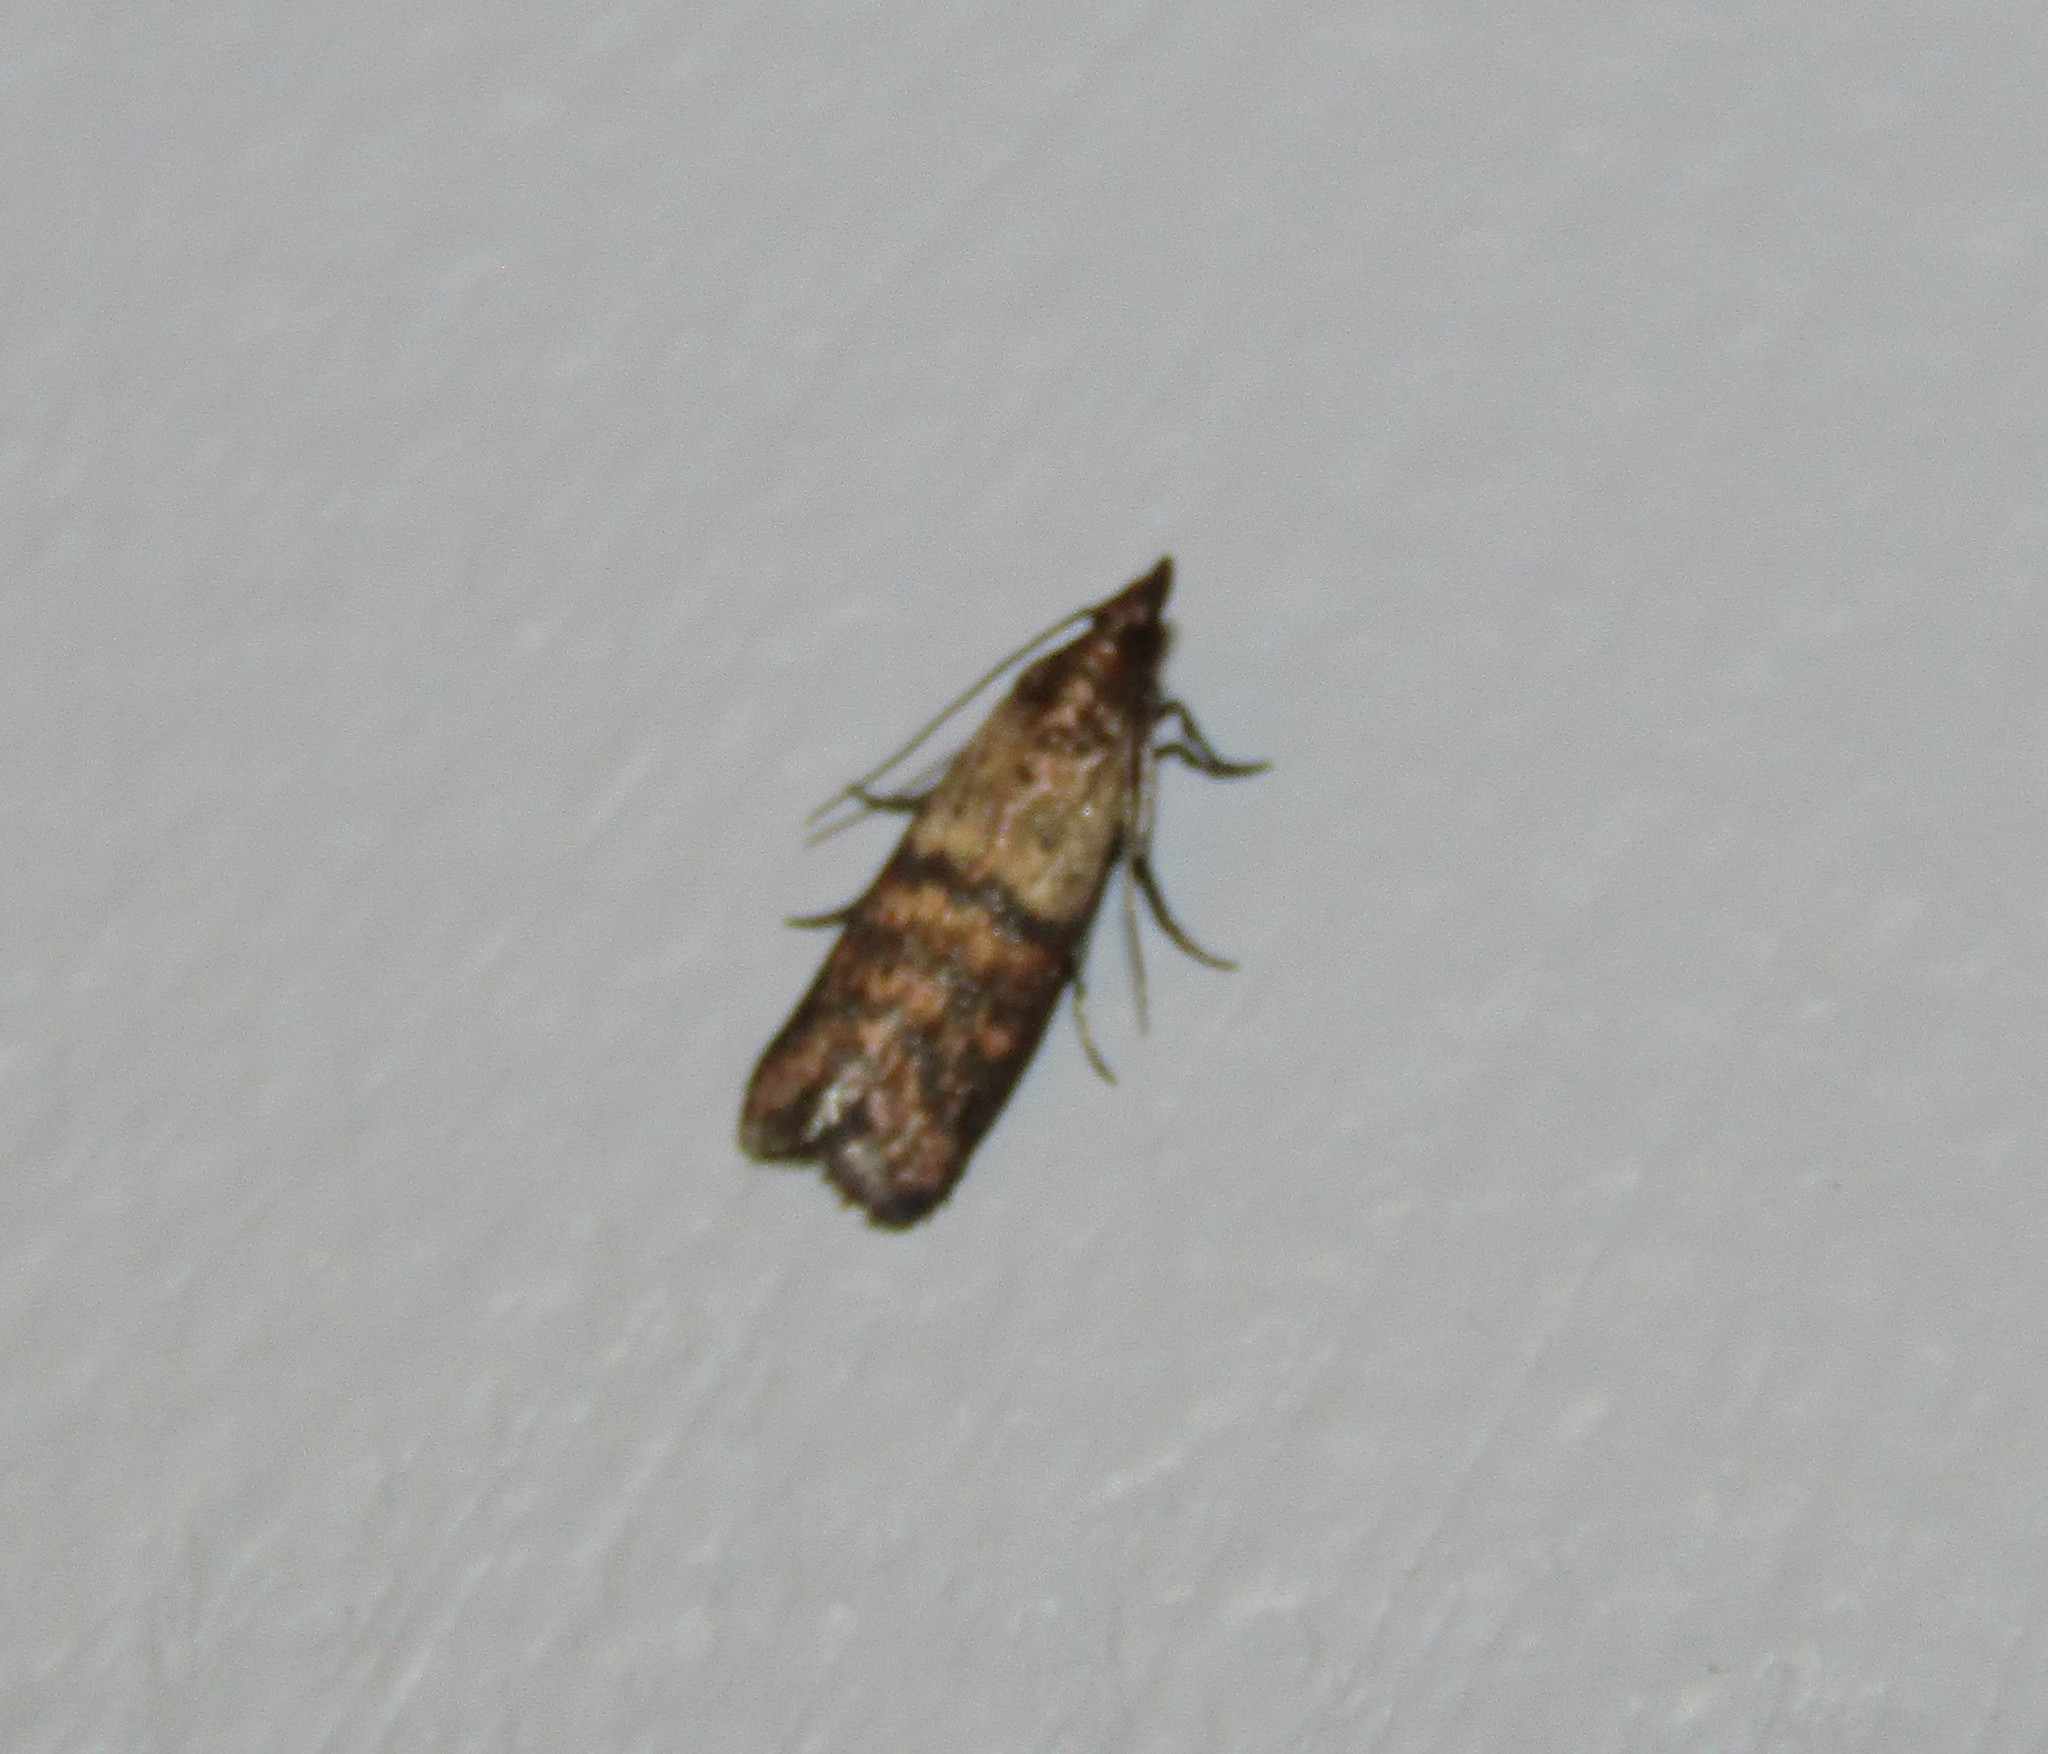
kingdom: Animalia
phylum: Arthropoda
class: Insecta
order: Lepidoptera
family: Pyralidae
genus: Plodia
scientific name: Plodia interpunctella
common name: Indian meal moth
